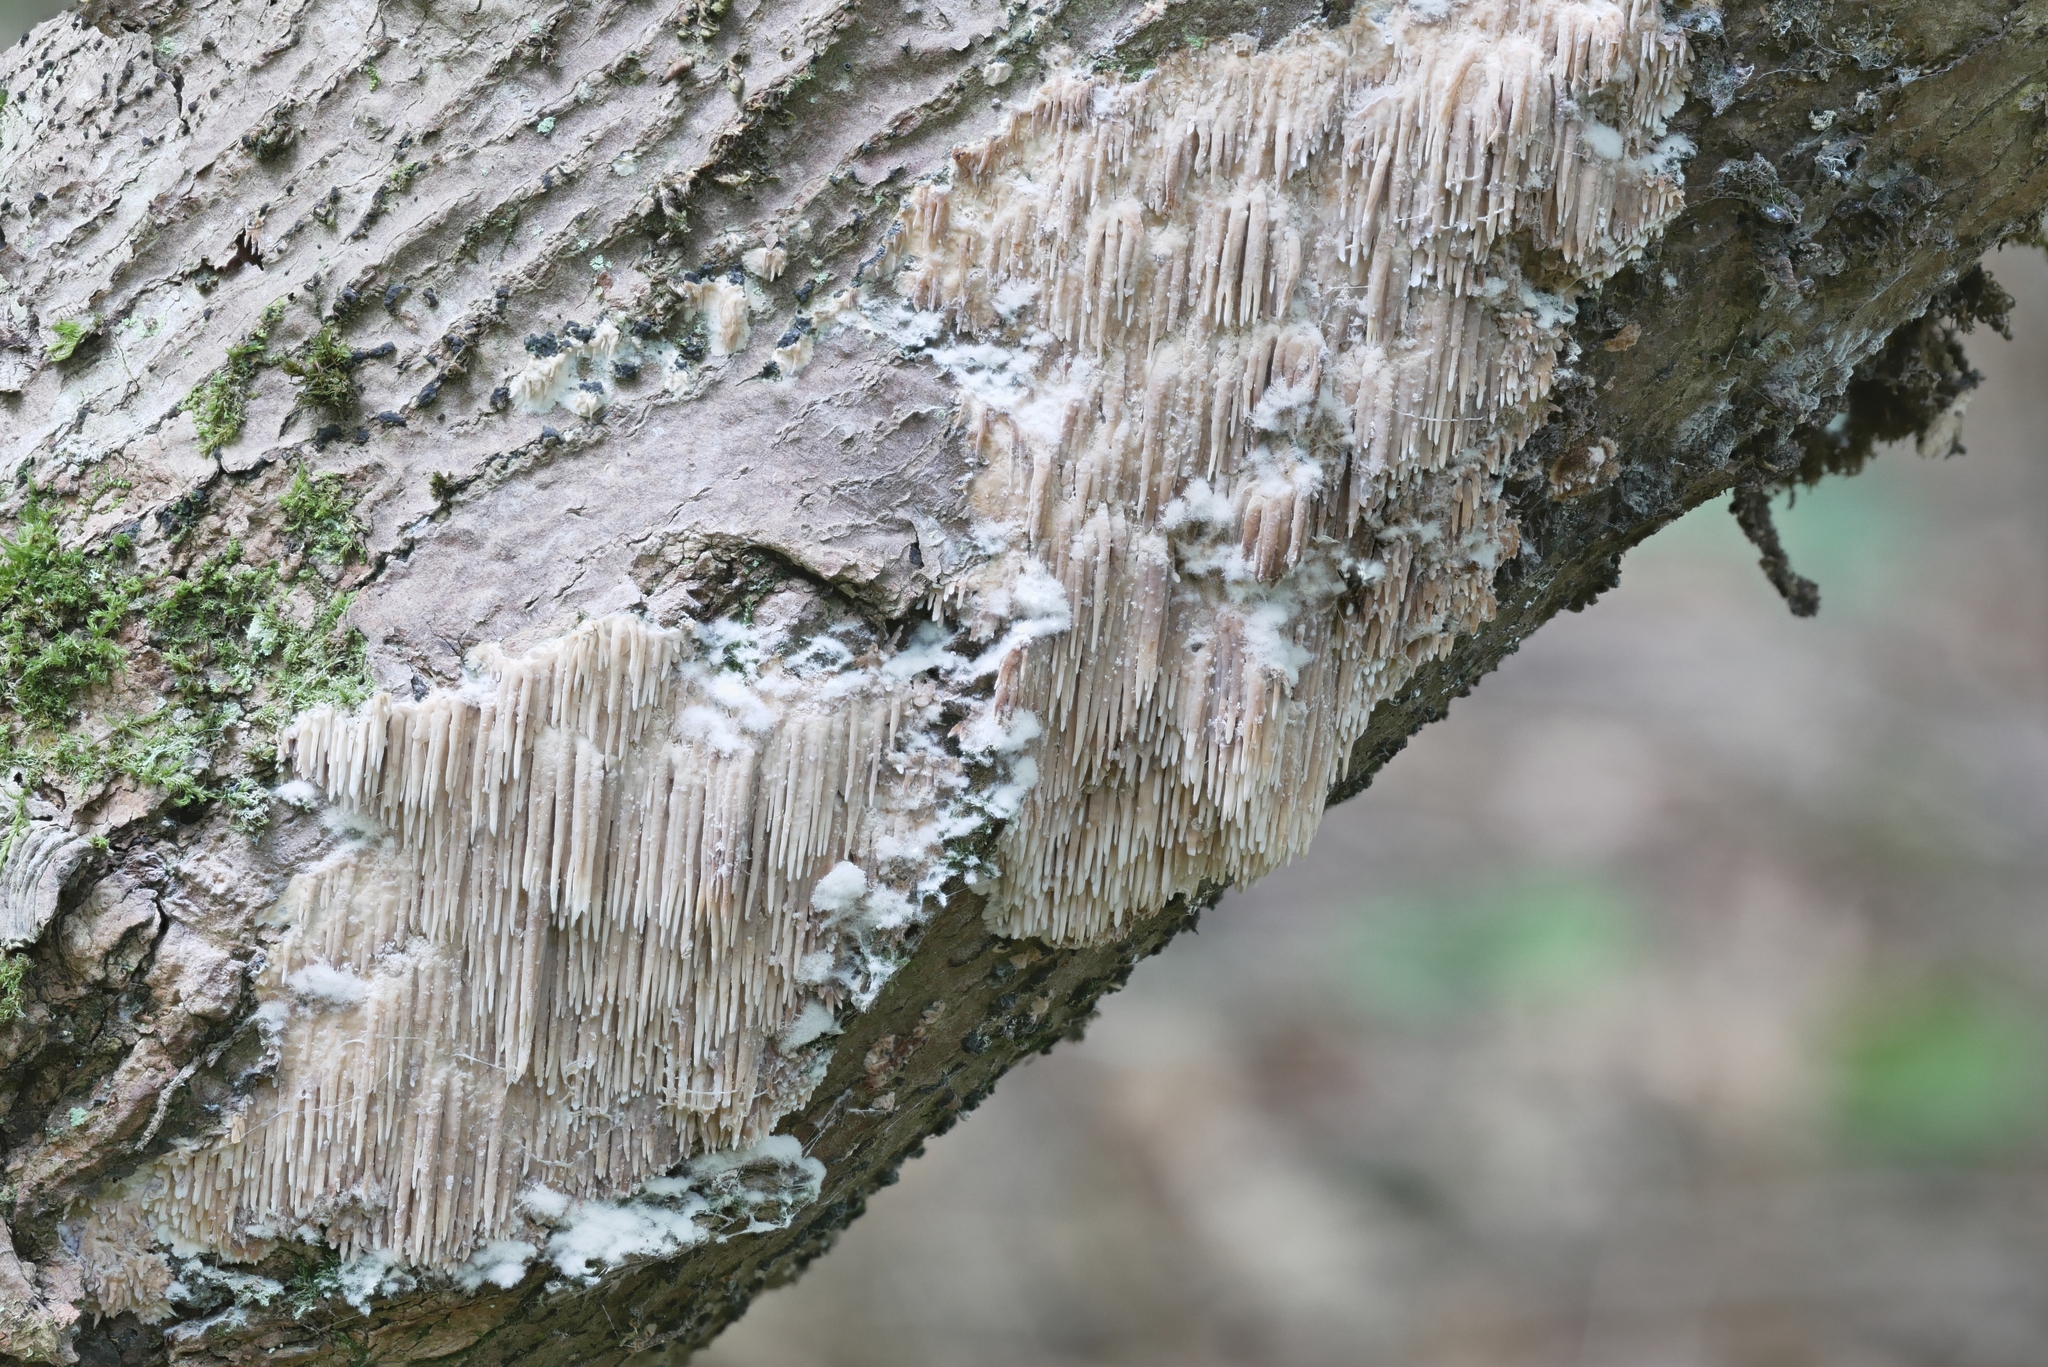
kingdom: Fungi
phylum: Basidiomycota
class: Agaricomycetes
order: Agaricales
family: Radulomycetaceae
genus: Radulomyces
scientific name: Radulomyces copelandii
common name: Asian beauty
